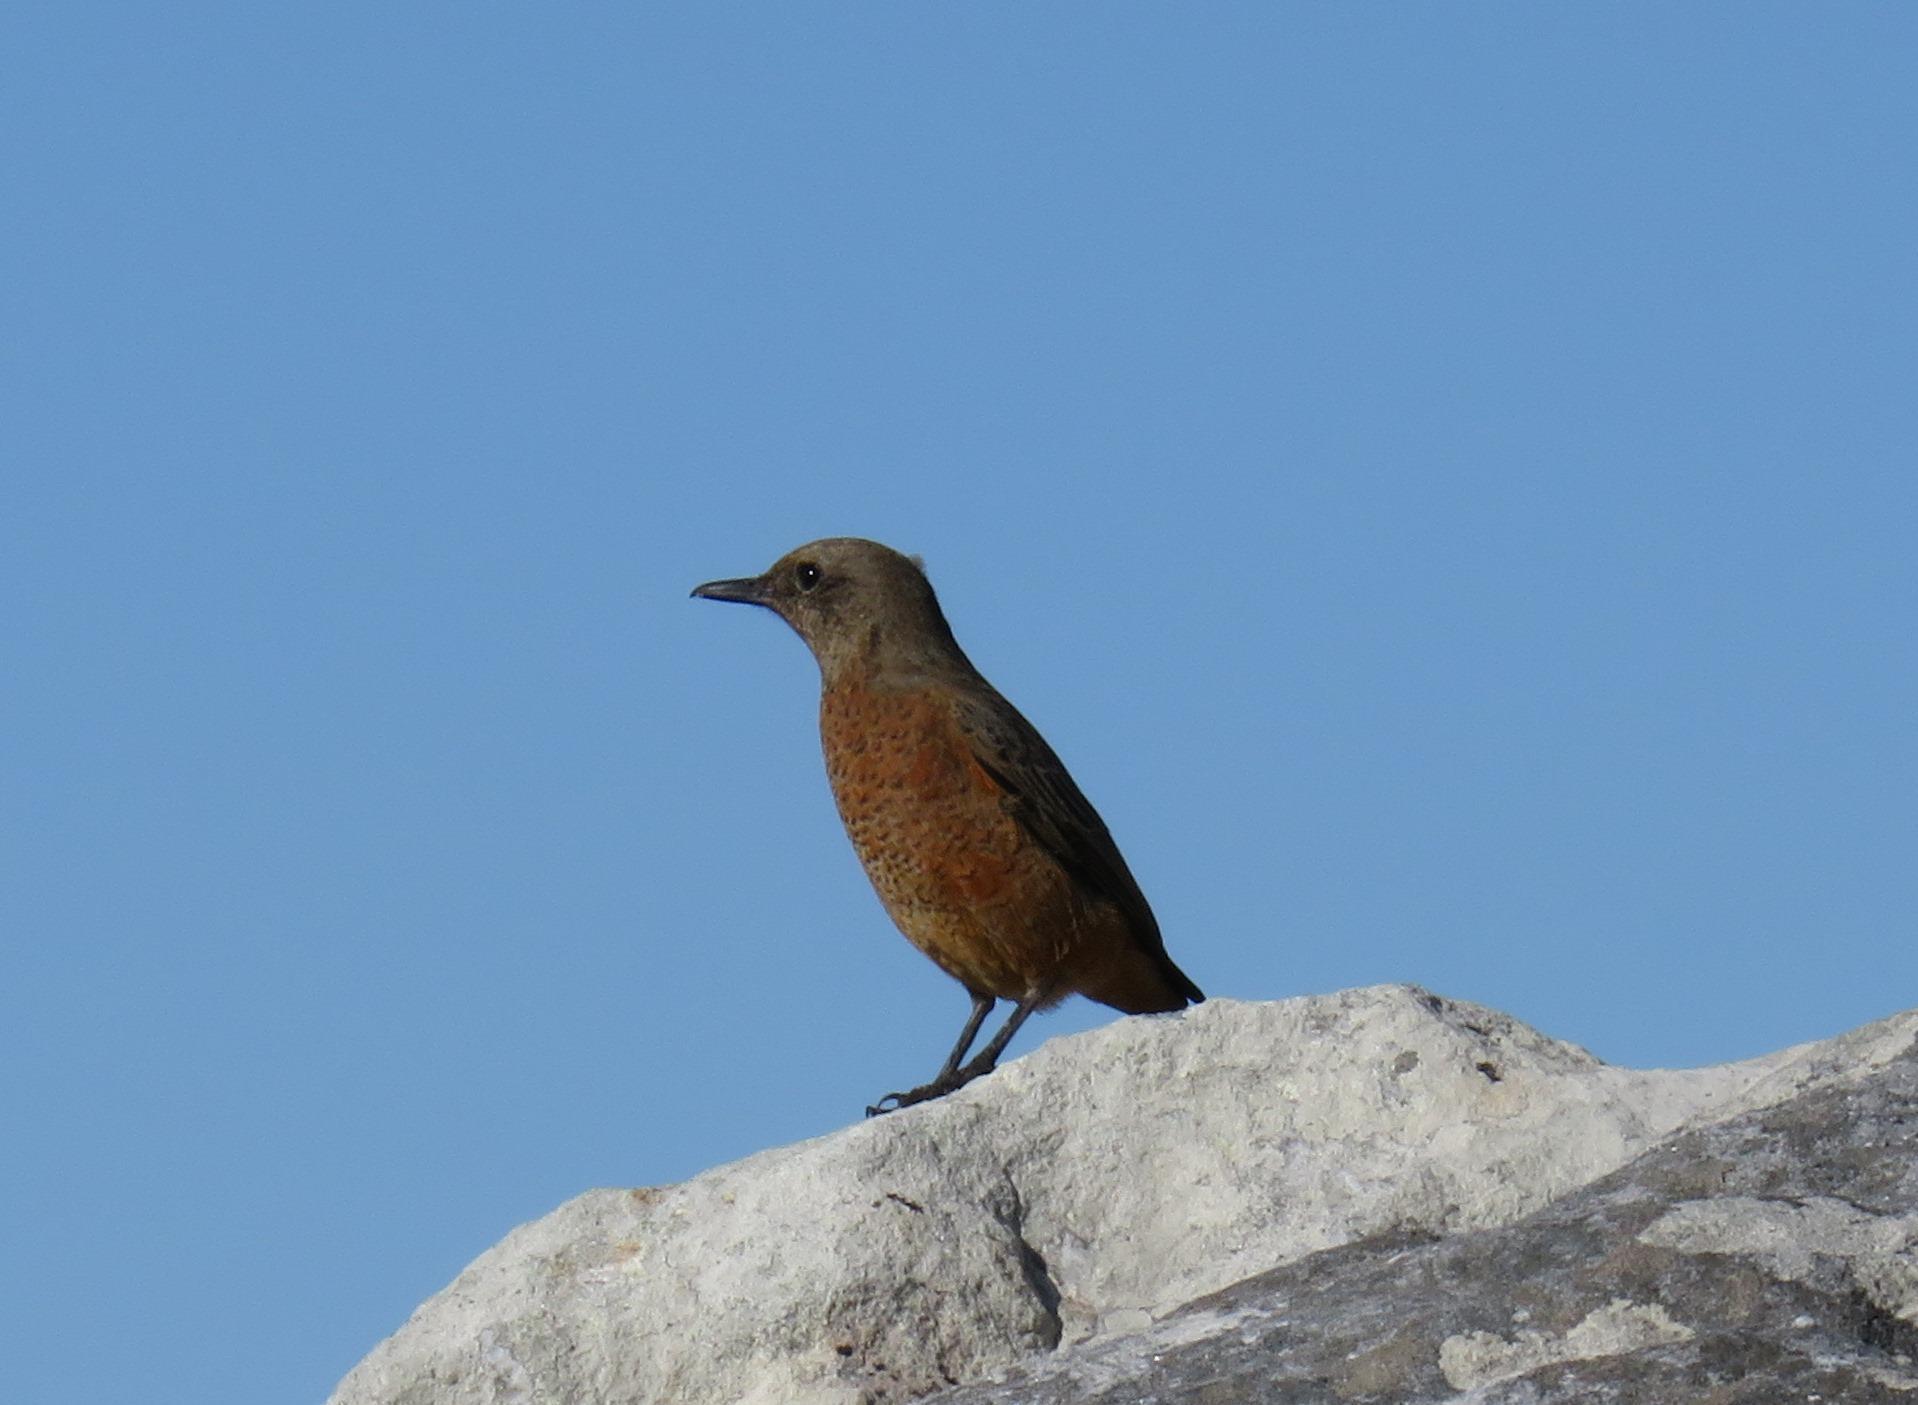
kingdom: Animalia
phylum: Chordata
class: Aves
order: Passeriformes
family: Muscicapidae
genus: Monticola
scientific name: Monticola rupestris
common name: Cape rock thrush
